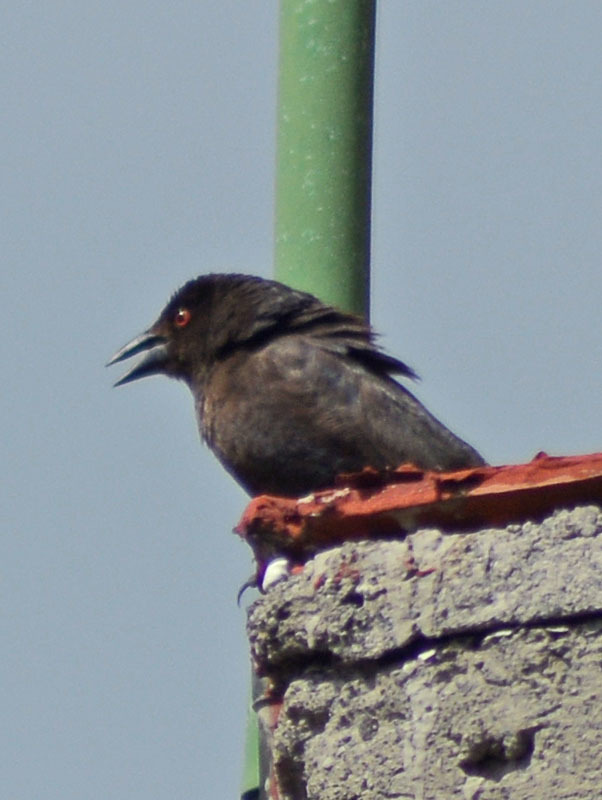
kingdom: Animalia
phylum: Chordata
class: Aves
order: Passeriformes
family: Icteridae
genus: Molothrus
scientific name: Molothrus aeneus
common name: Bronzed cowbird
